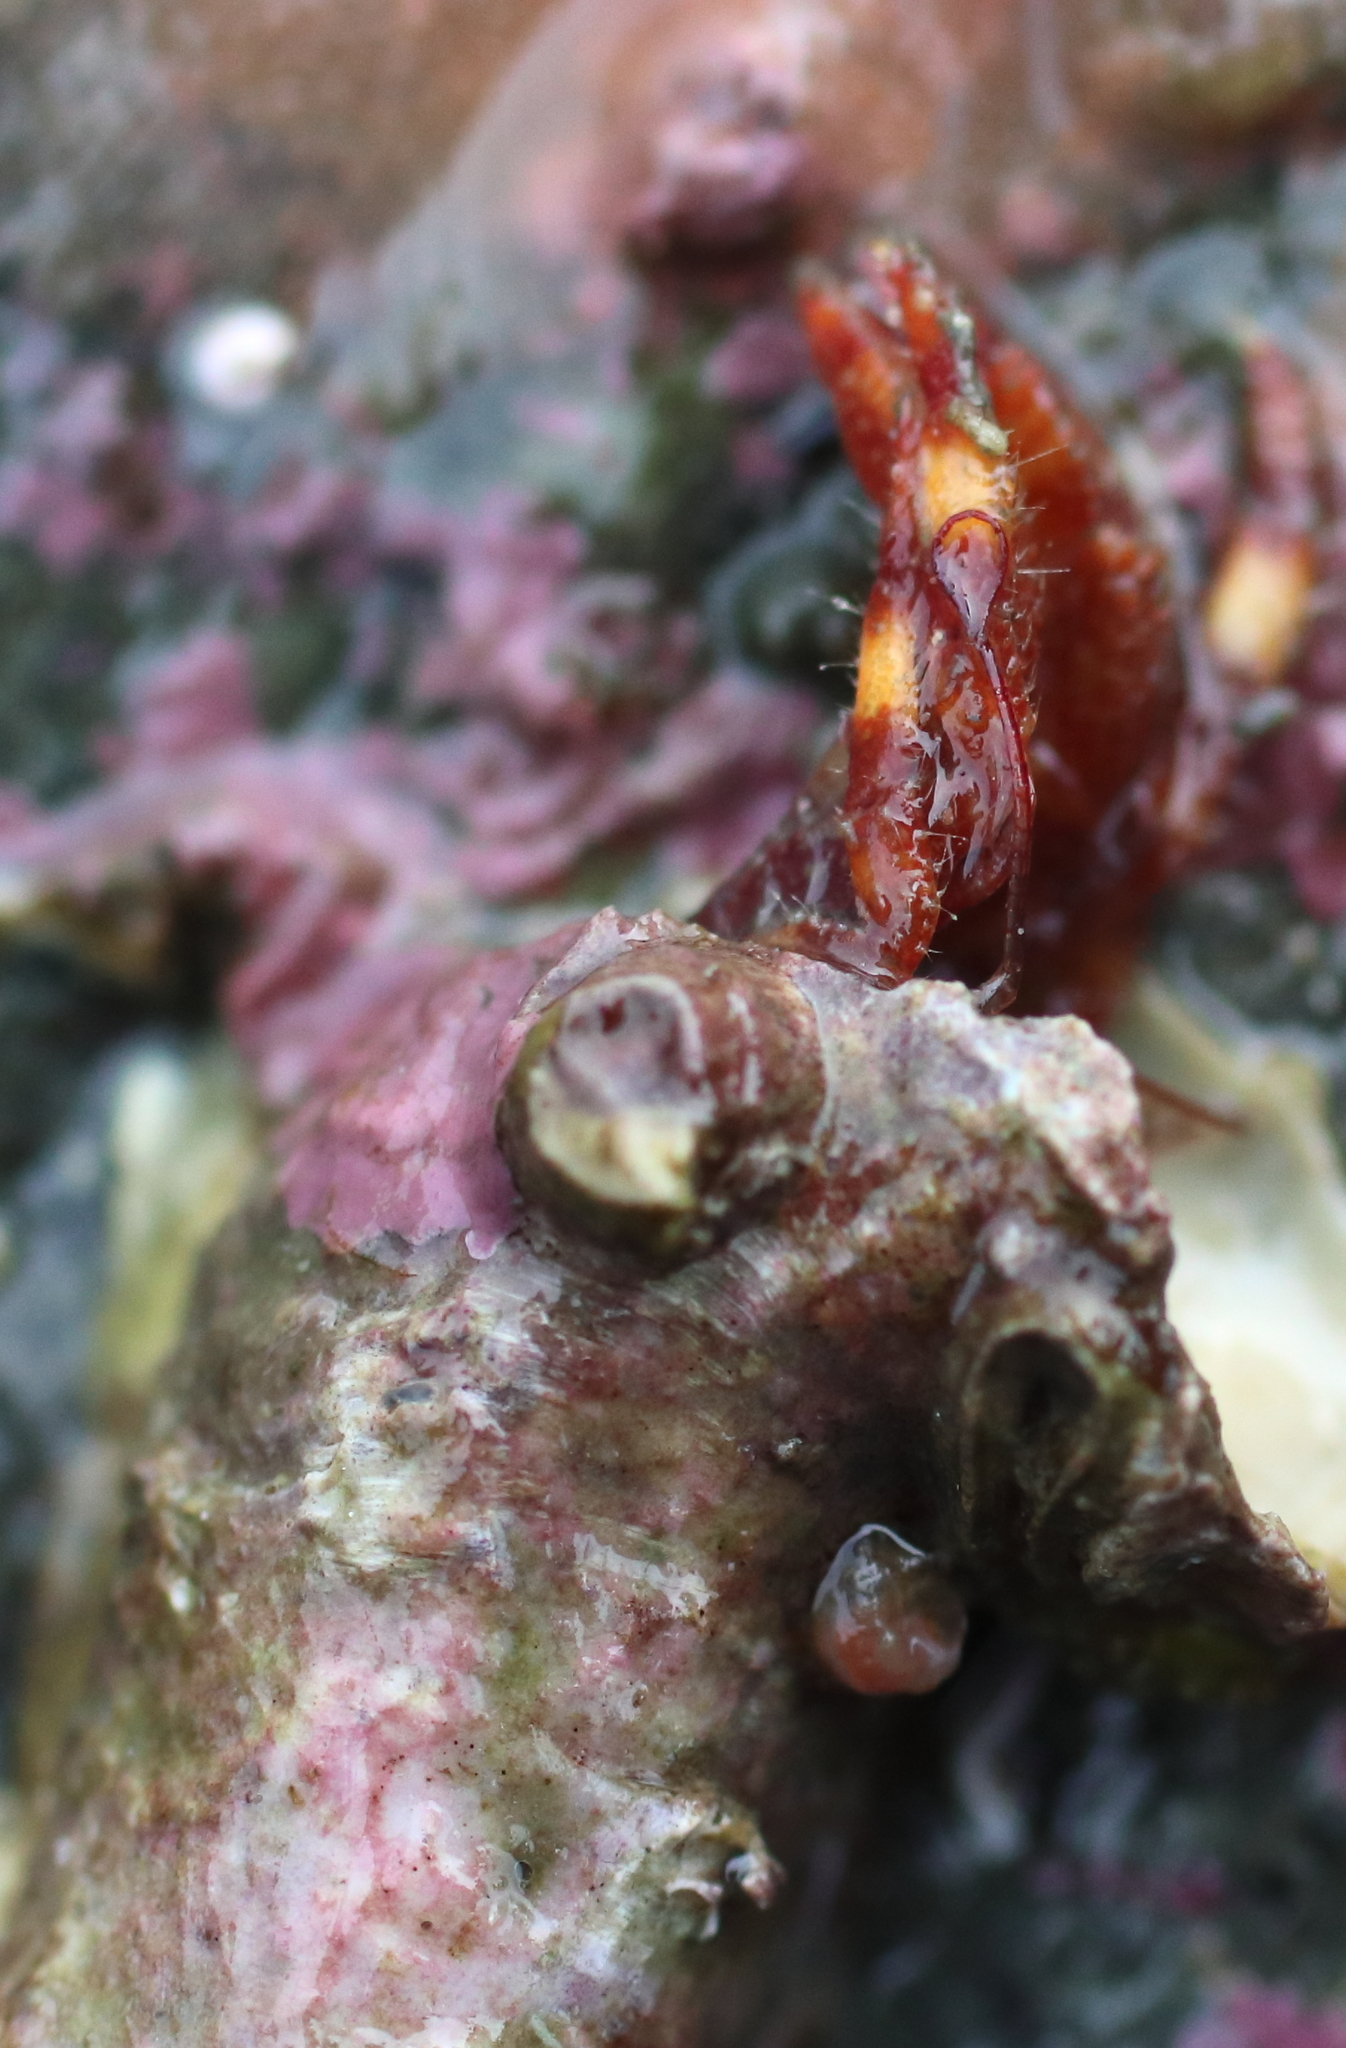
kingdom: Animalia
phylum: Arthropoda
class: Malacostraca
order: Decapoda
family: Paguridae
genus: Discorsopagurus
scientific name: Discorsopagurus schmitti
